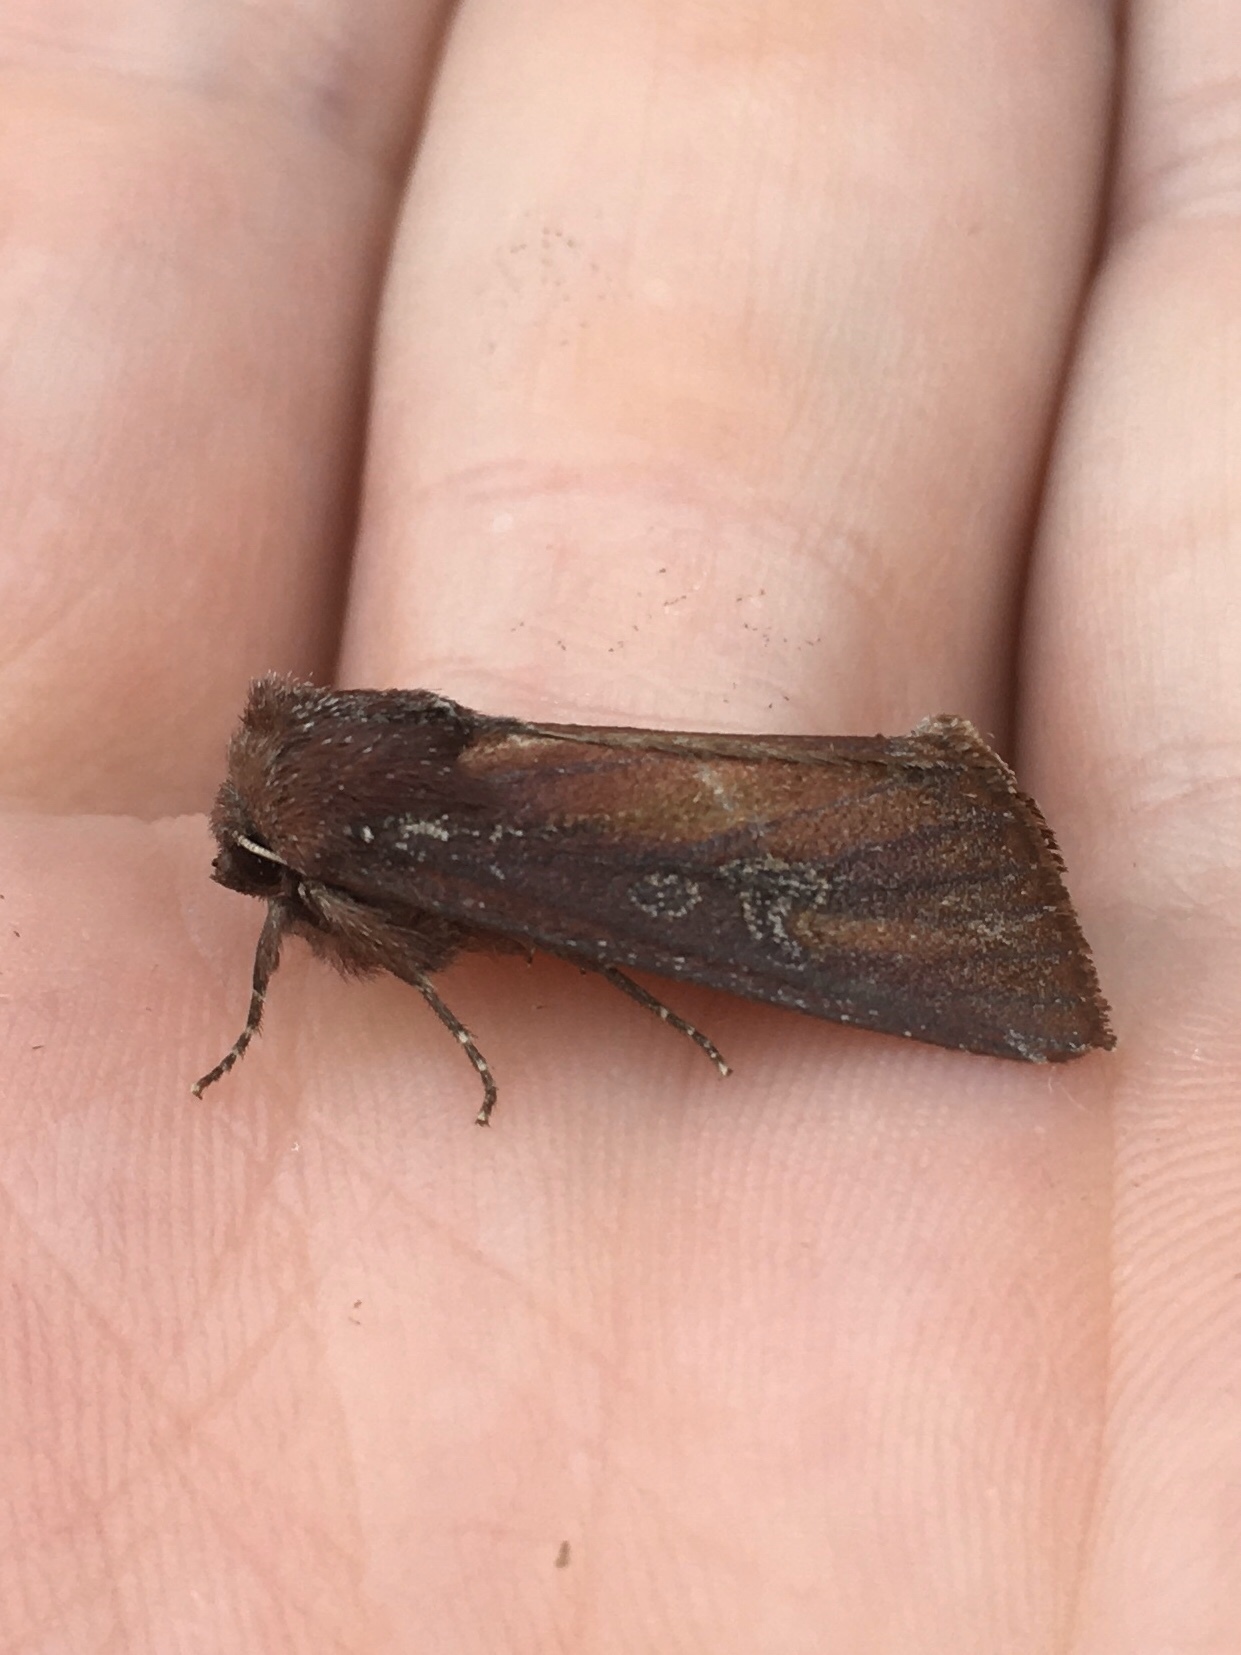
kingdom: Animalia
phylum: Arthropoda
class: Insecta
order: Lepidoptera
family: Noctuidae
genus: Melanchra
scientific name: Melanchra picta
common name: Zebra caterpillar
